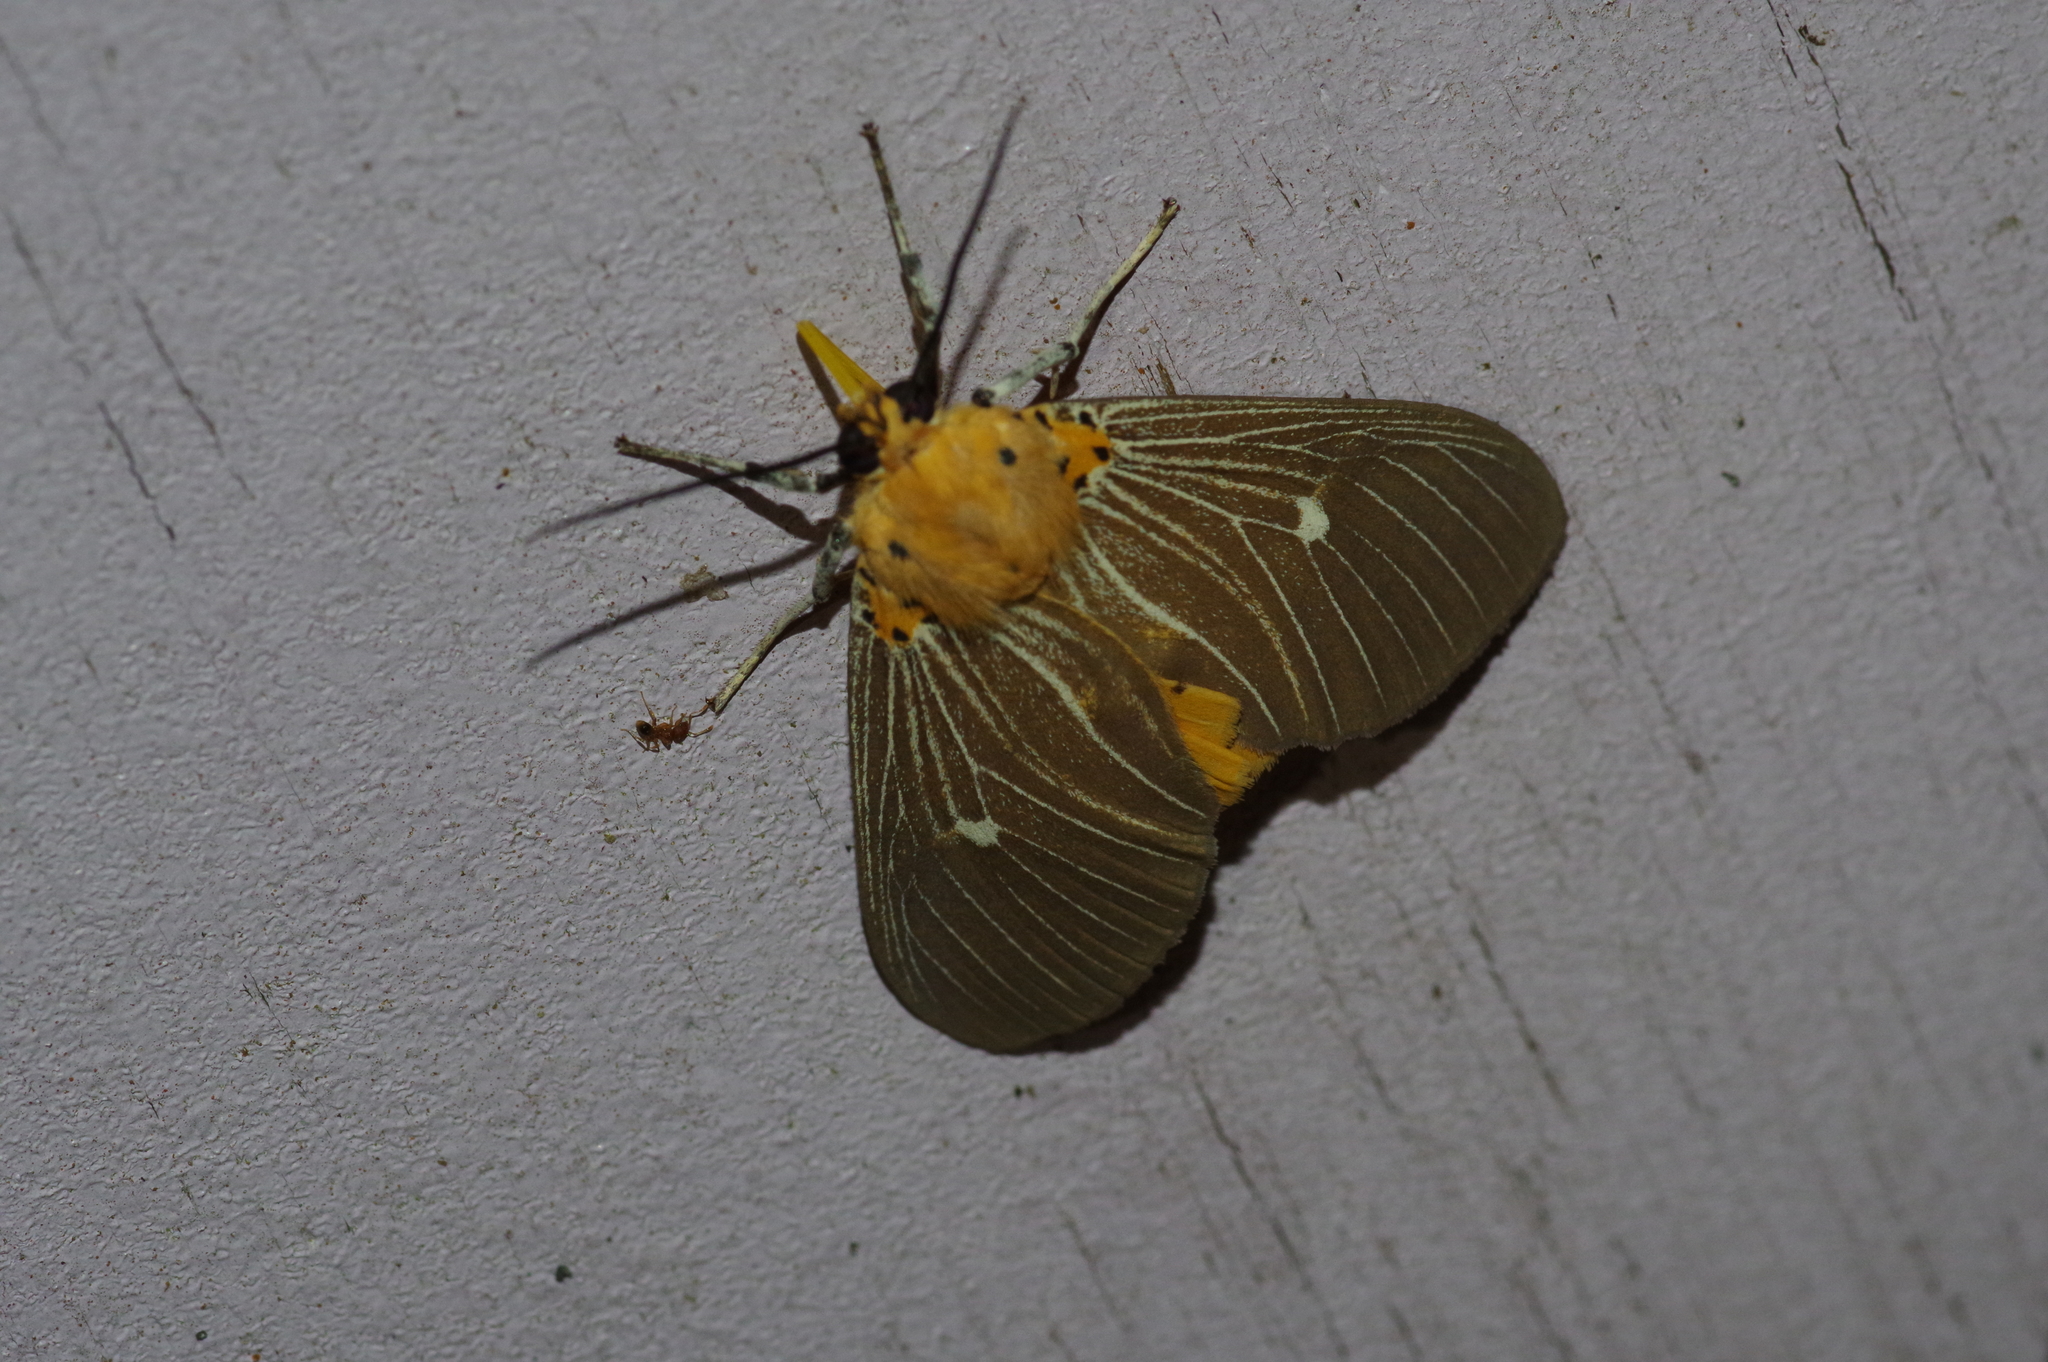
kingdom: Animalia
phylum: Arthropoda
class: Insecta
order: Lepidoptera
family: Erebidae
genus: Asota
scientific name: Asota caricae
